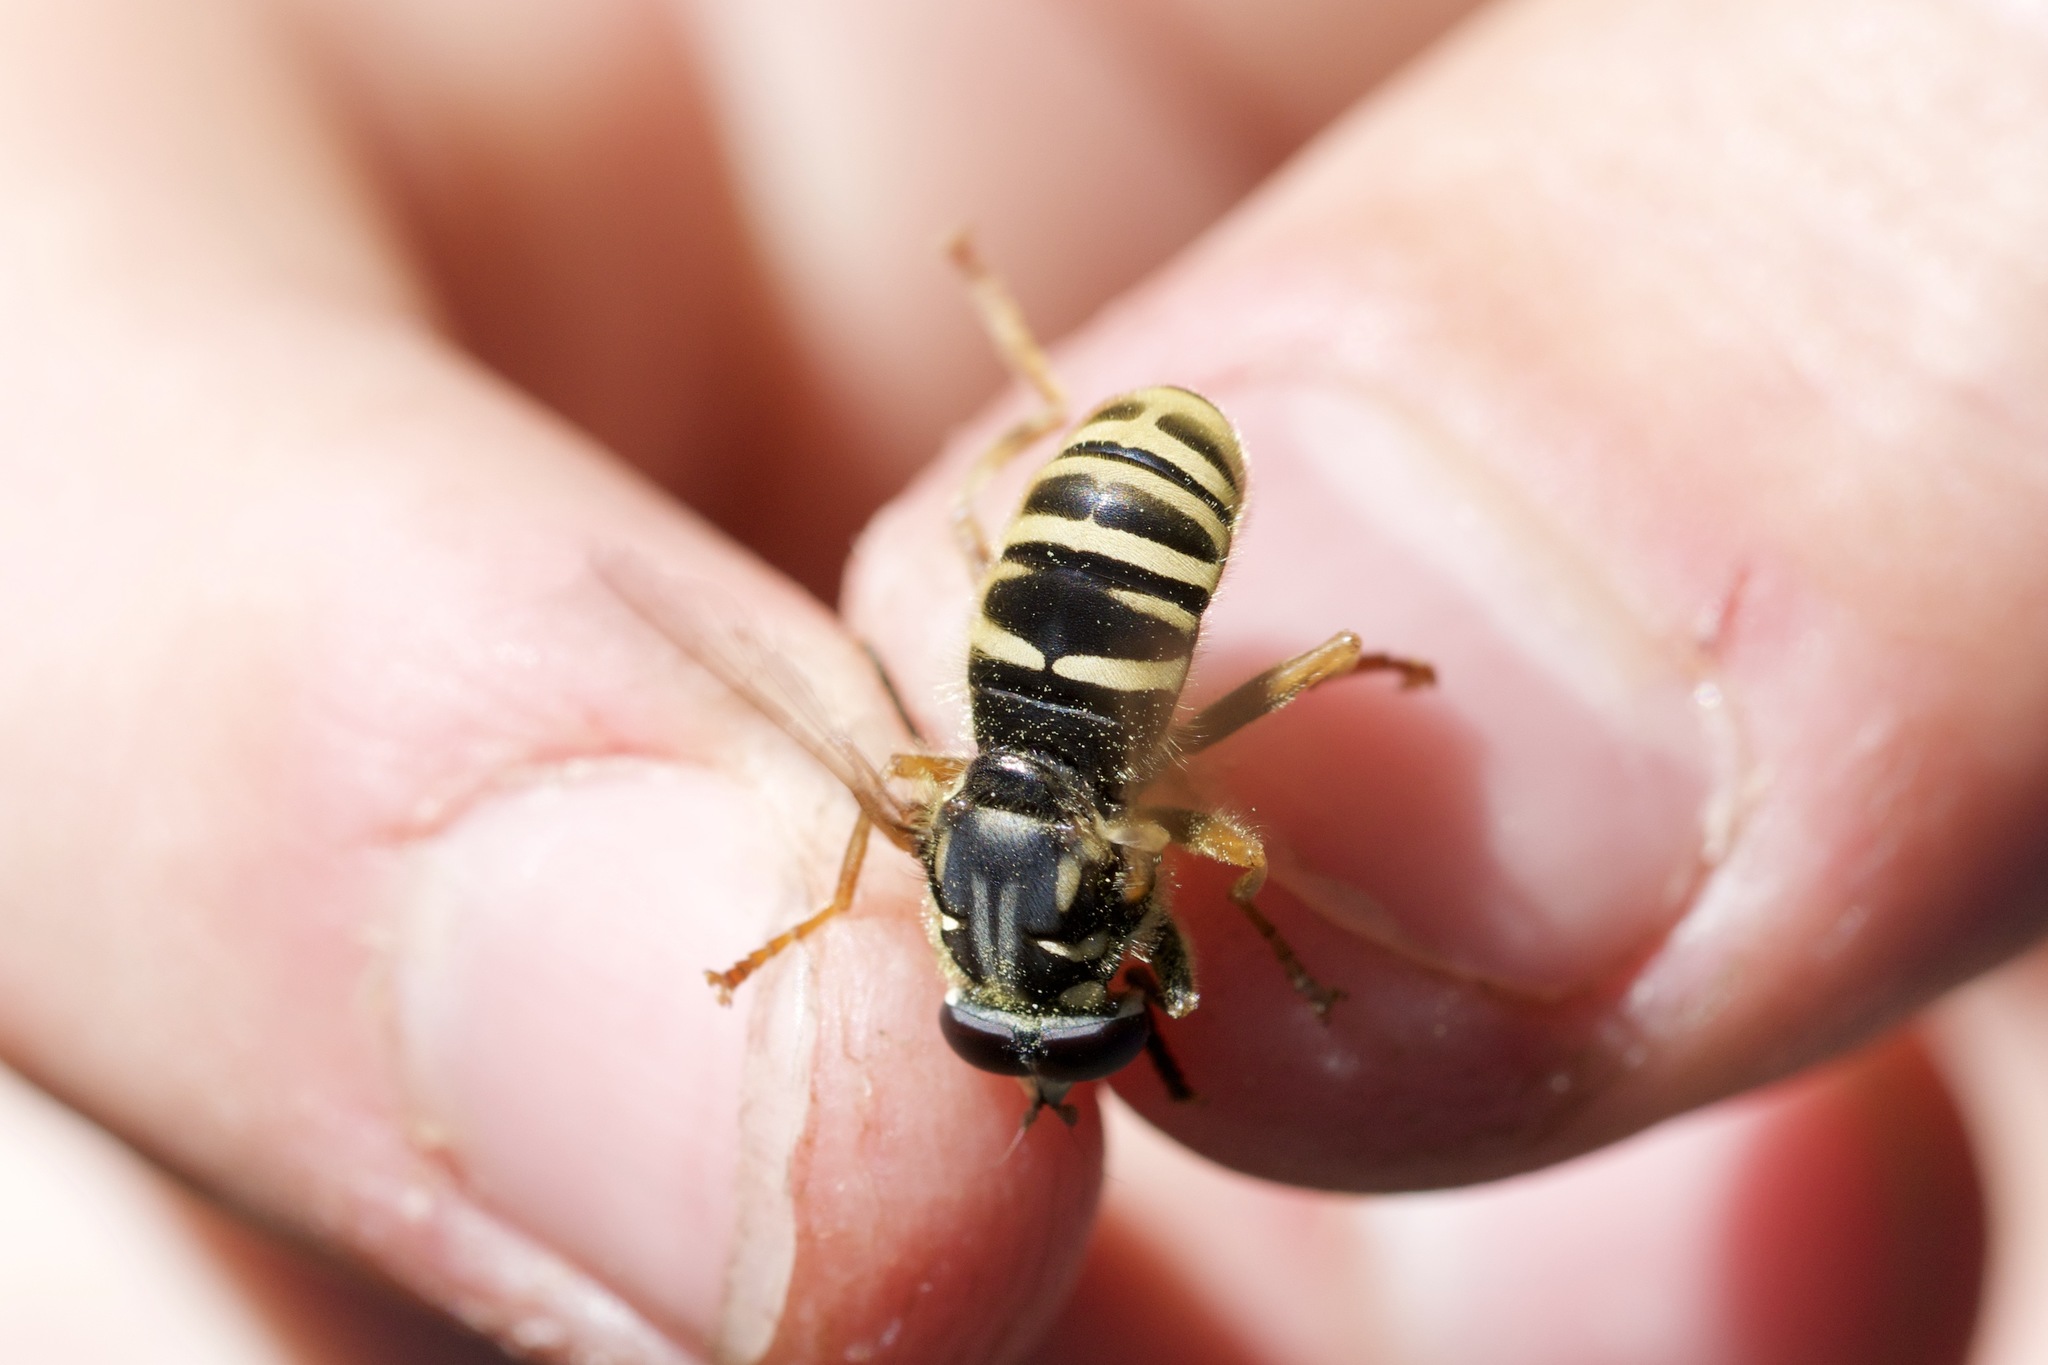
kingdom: Animalia
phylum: Arthropoda
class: Insecta
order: Diptera
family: Syrphidae
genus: Temnostoma
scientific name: Temnostoma excentricum
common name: Black-spotted falsehorn
